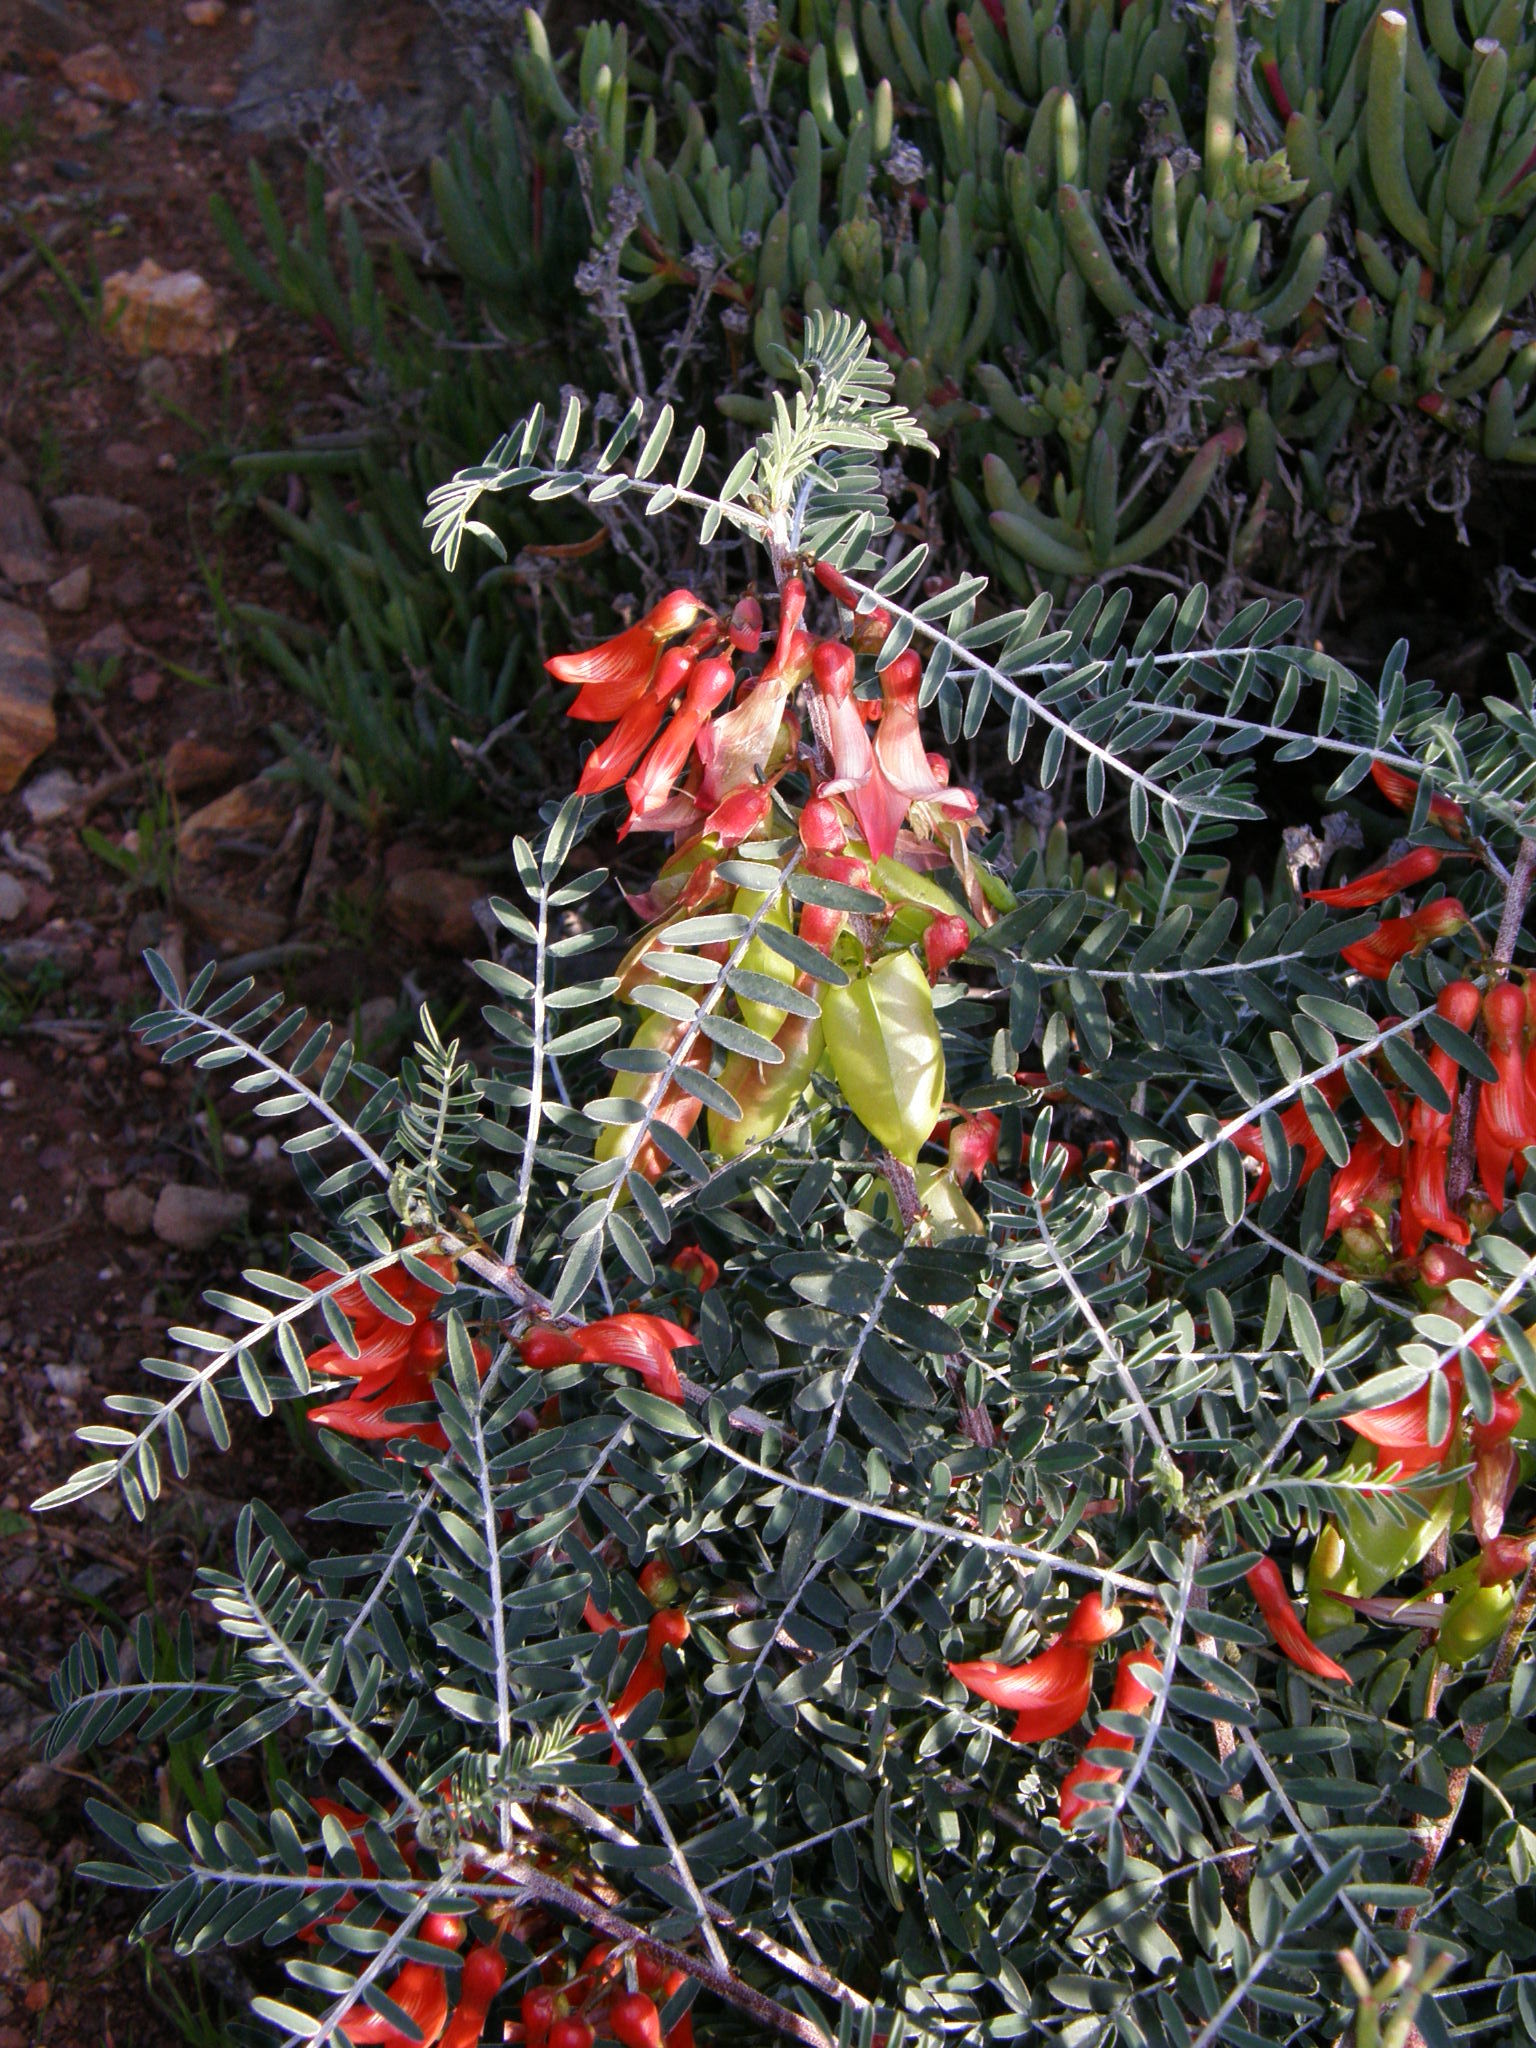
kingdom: Plantae
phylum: Tracheophyta
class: Magnoliopsida
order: Fabales
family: Fabaceae
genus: Lessertia
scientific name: Lessertia frutescens
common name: Balloon-pea
